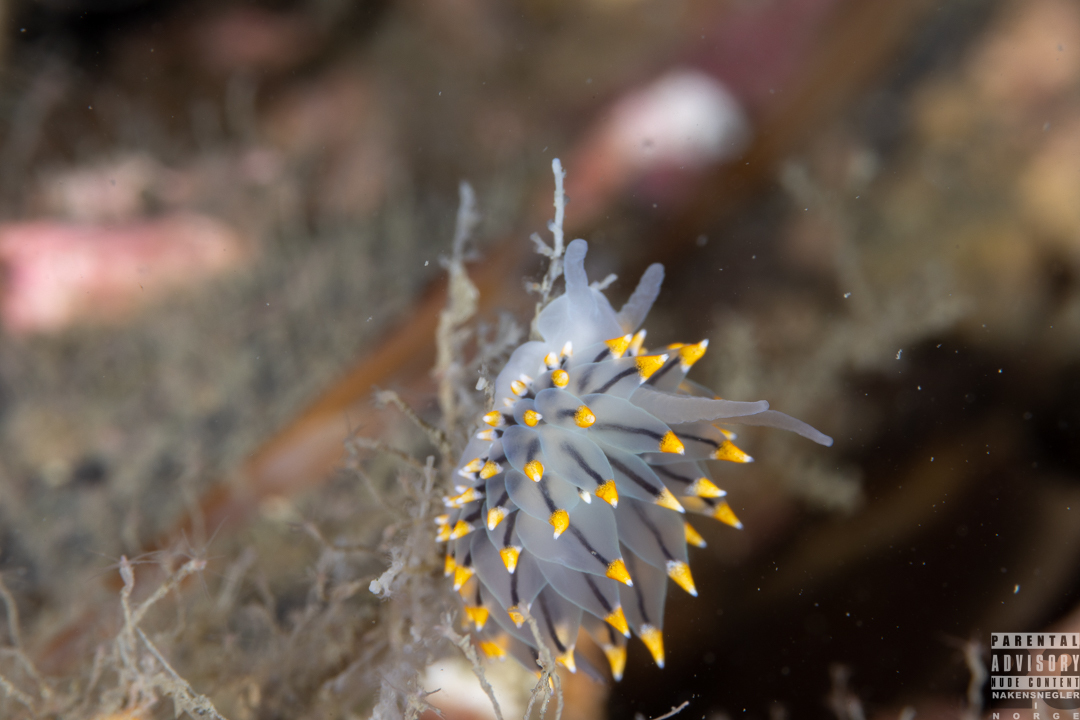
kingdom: Animalia
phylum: Mollusca
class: Gastropoda
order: Nudibranchia
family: Eubranchidae
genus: Eubranchus
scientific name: Eubranchus tricolor
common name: Painted balloon aeolis
